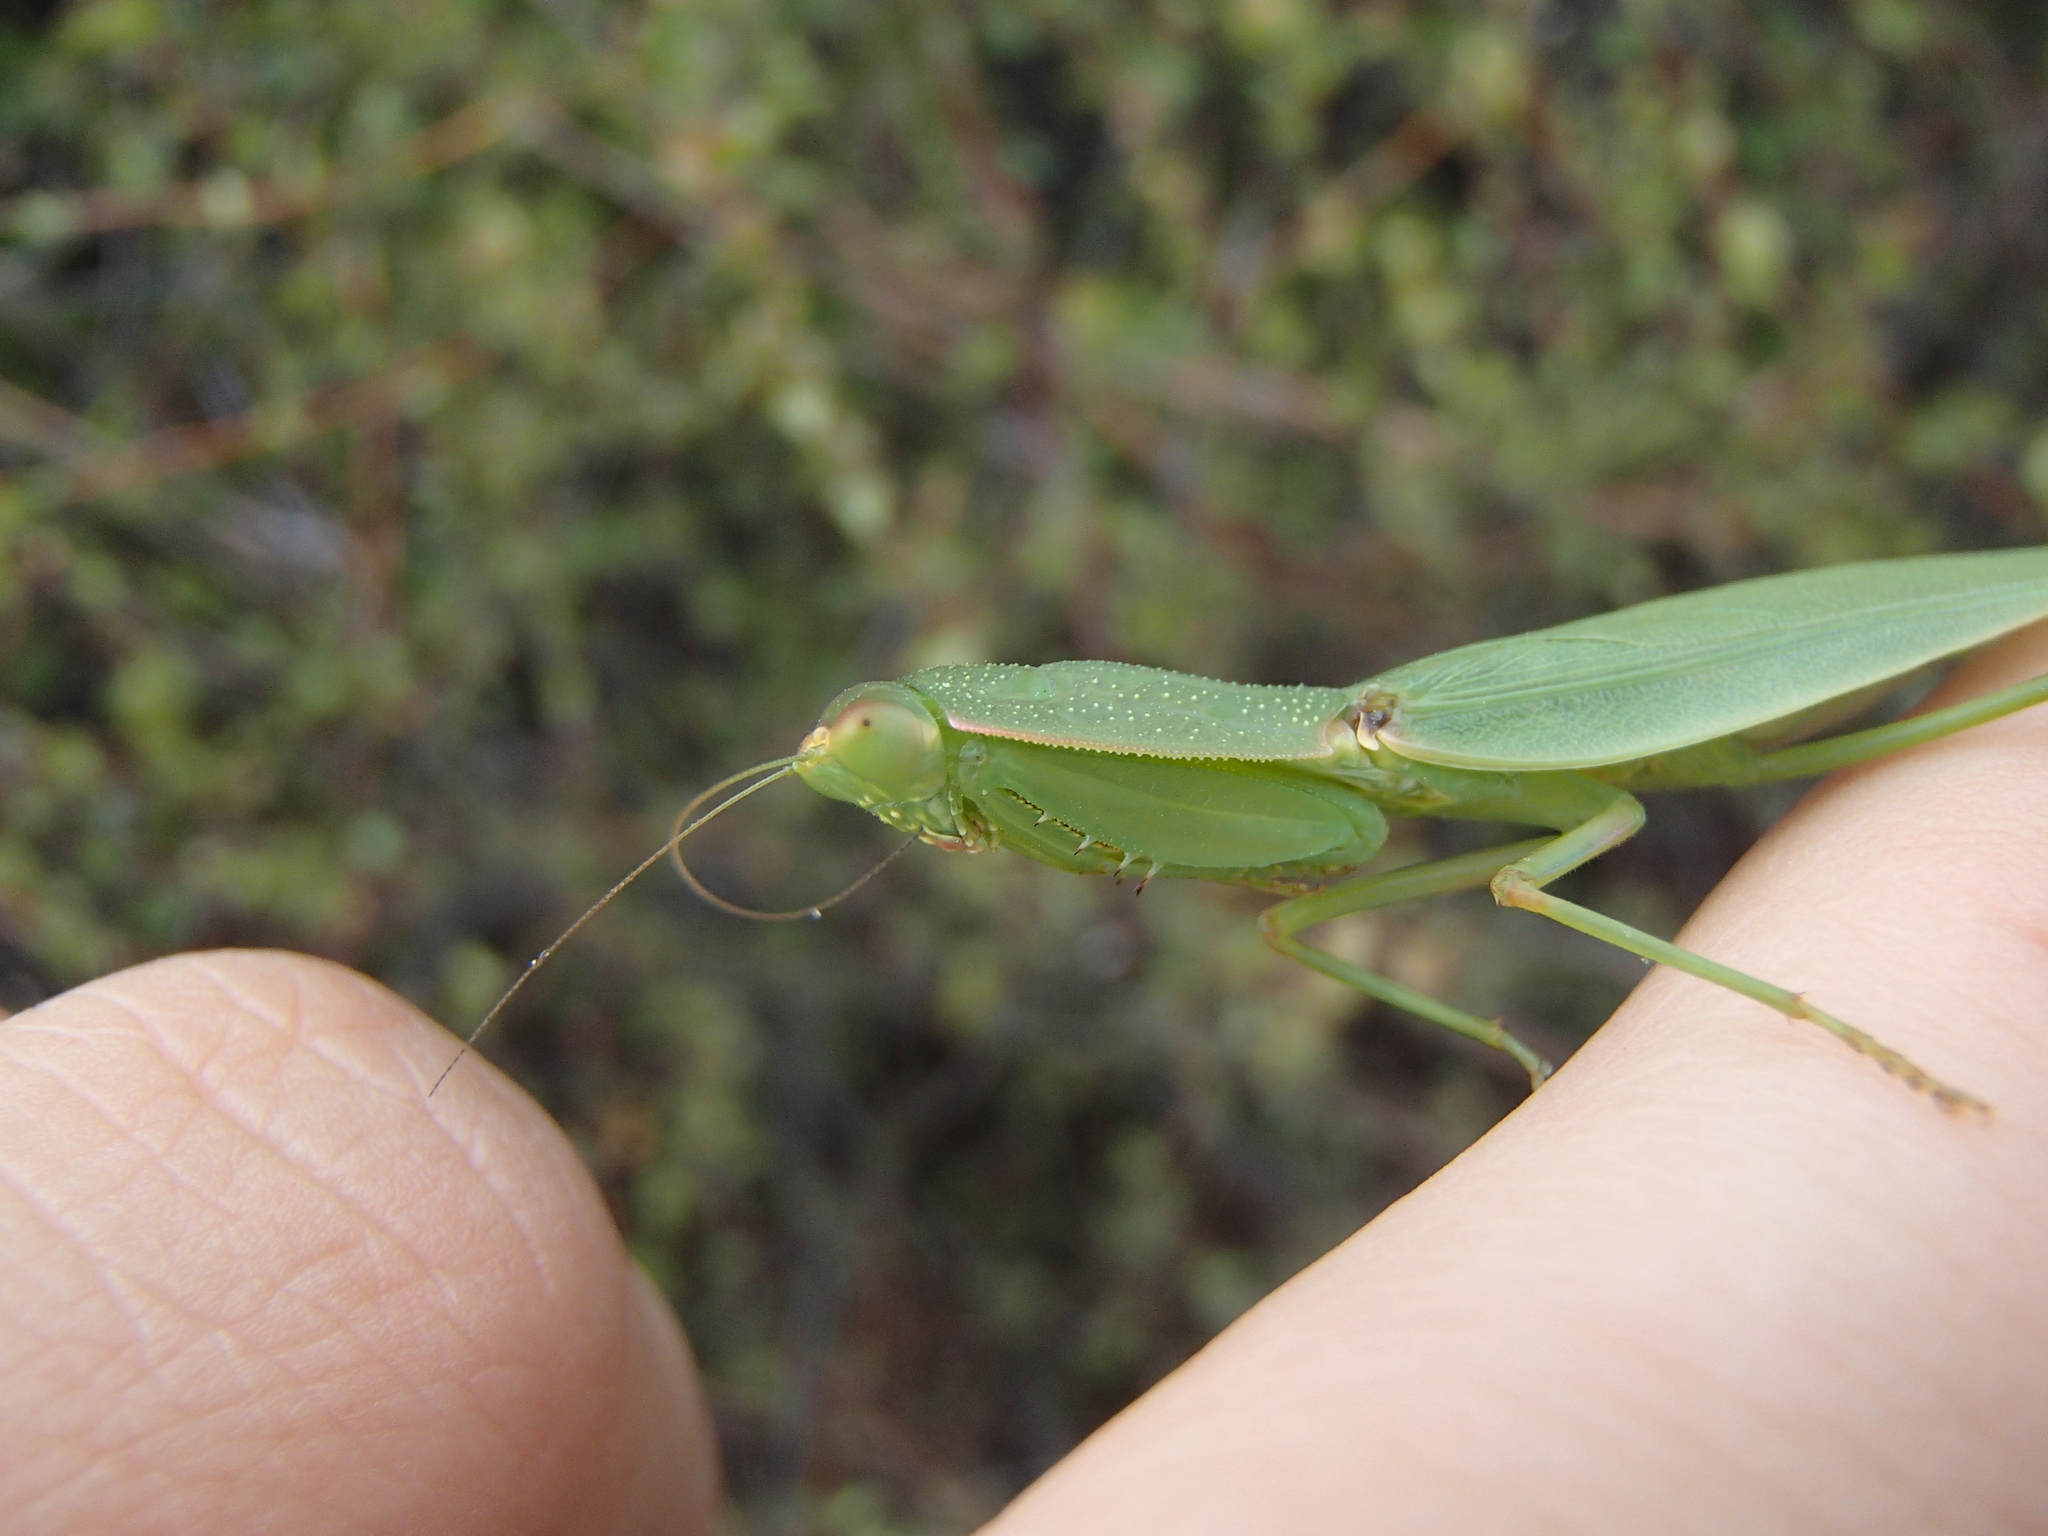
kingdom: Animalia
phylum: Arthropoda
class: Insecta
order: Mantodea
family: Mantidae
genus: Orthodera
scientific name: Orthodera novaezealandiae
